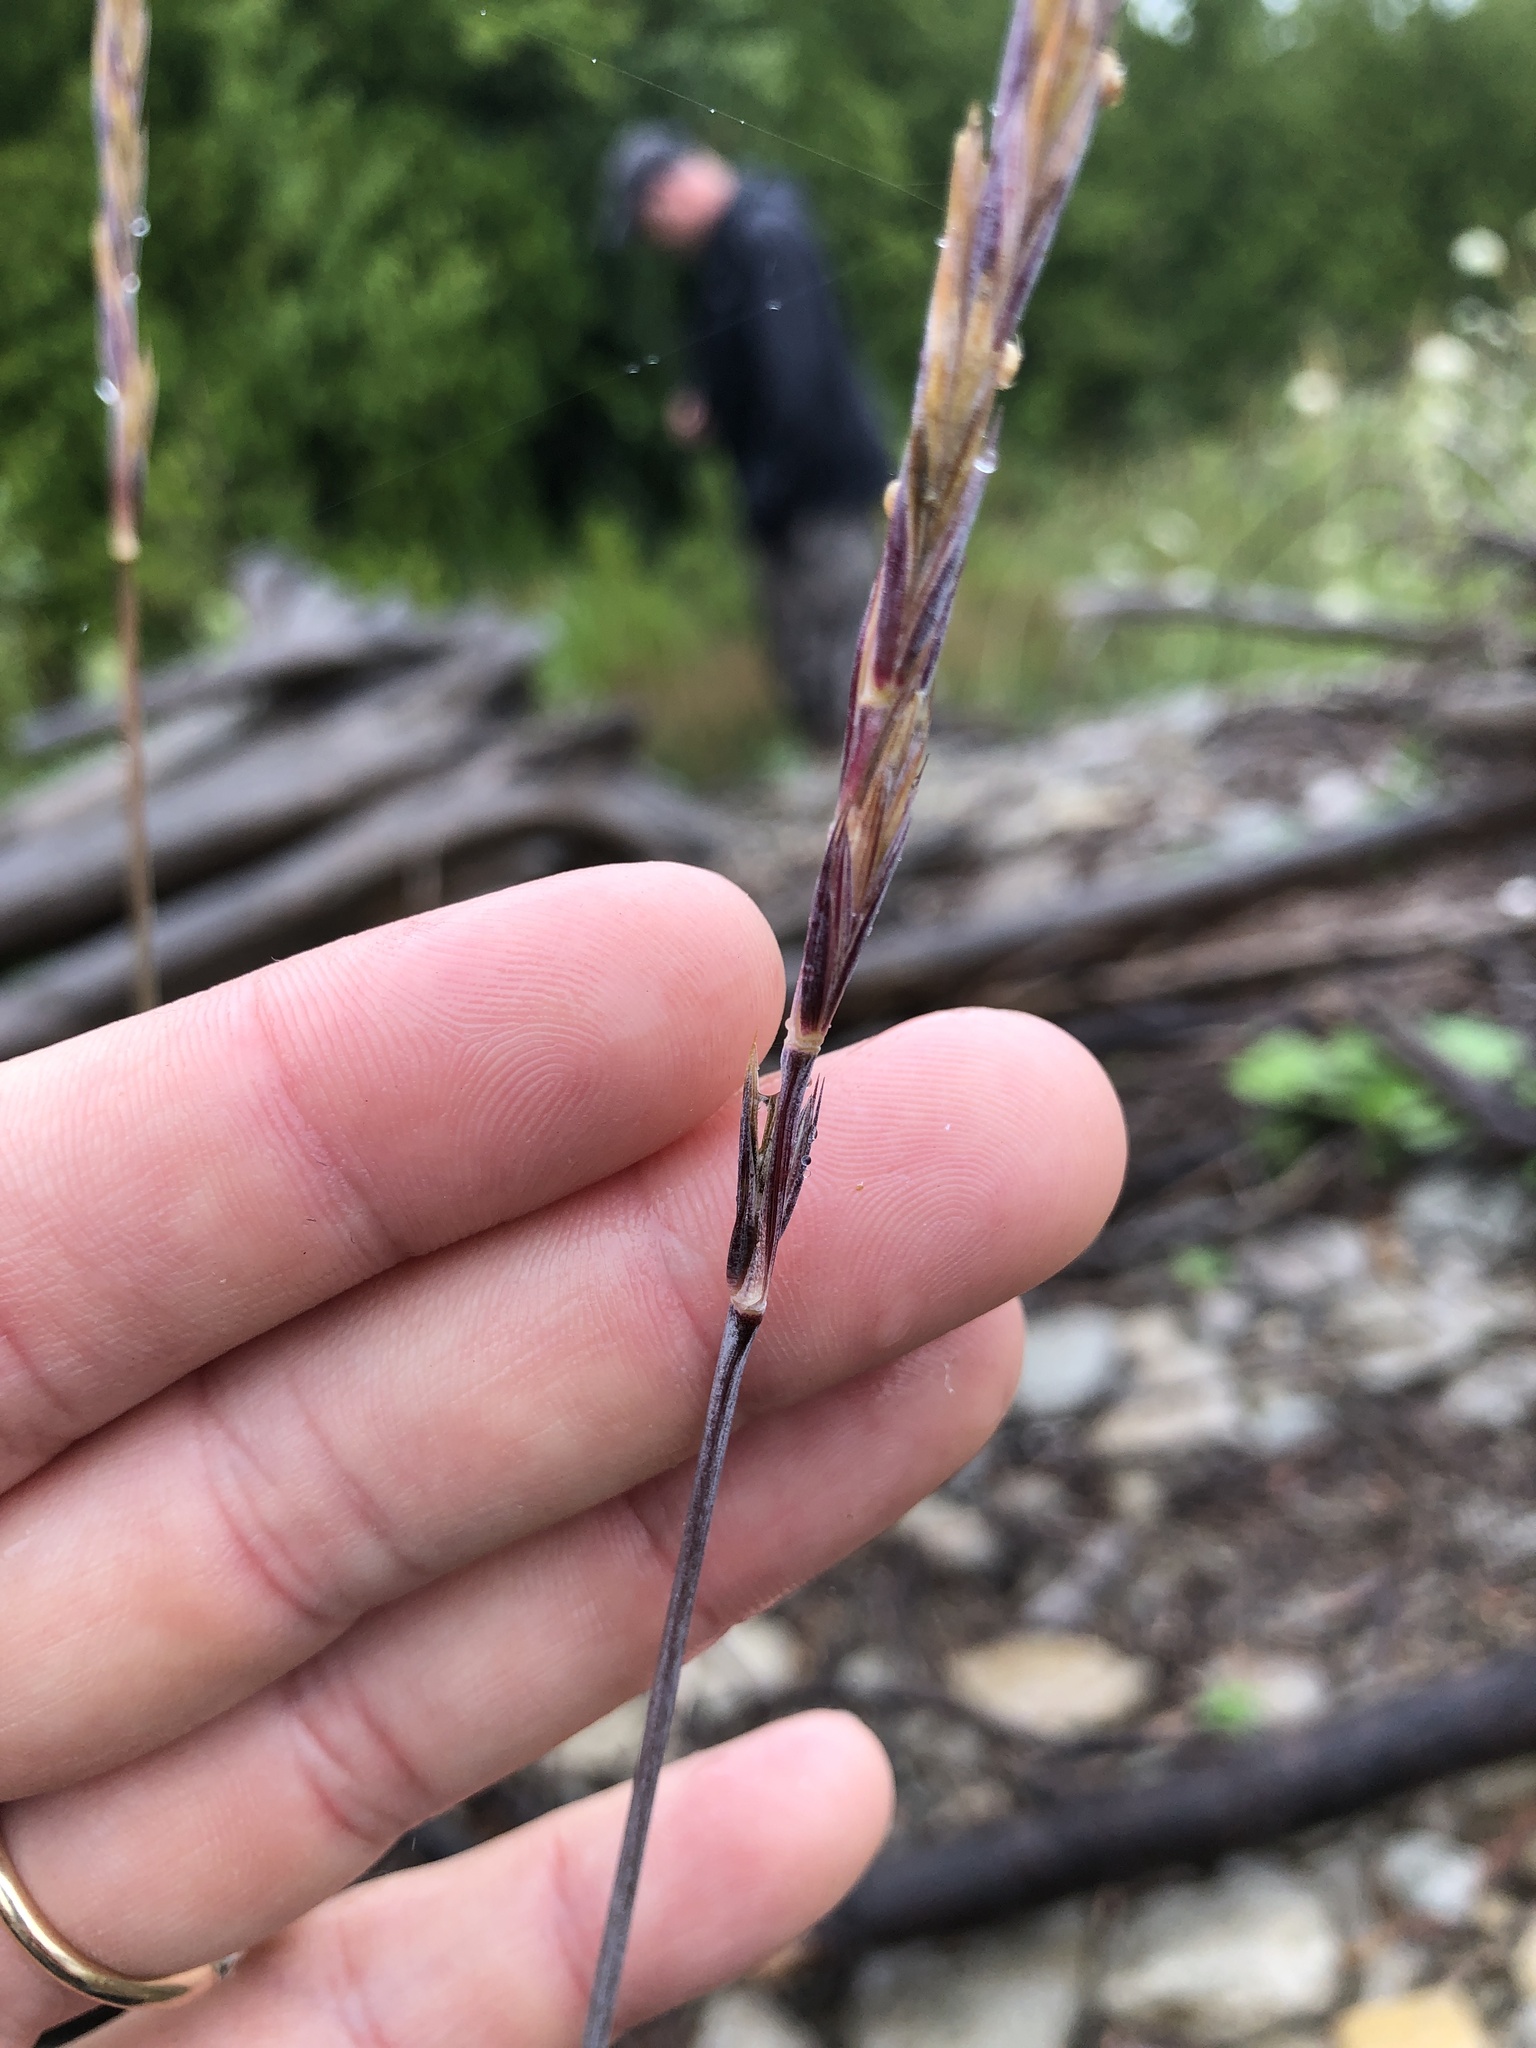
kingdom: Plantae
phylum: Tracheophyta
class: Liliopsida
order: Poales
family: Poaceae
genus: Elymus
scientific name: Elymus violaceus
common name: Arctic wheatgrass
